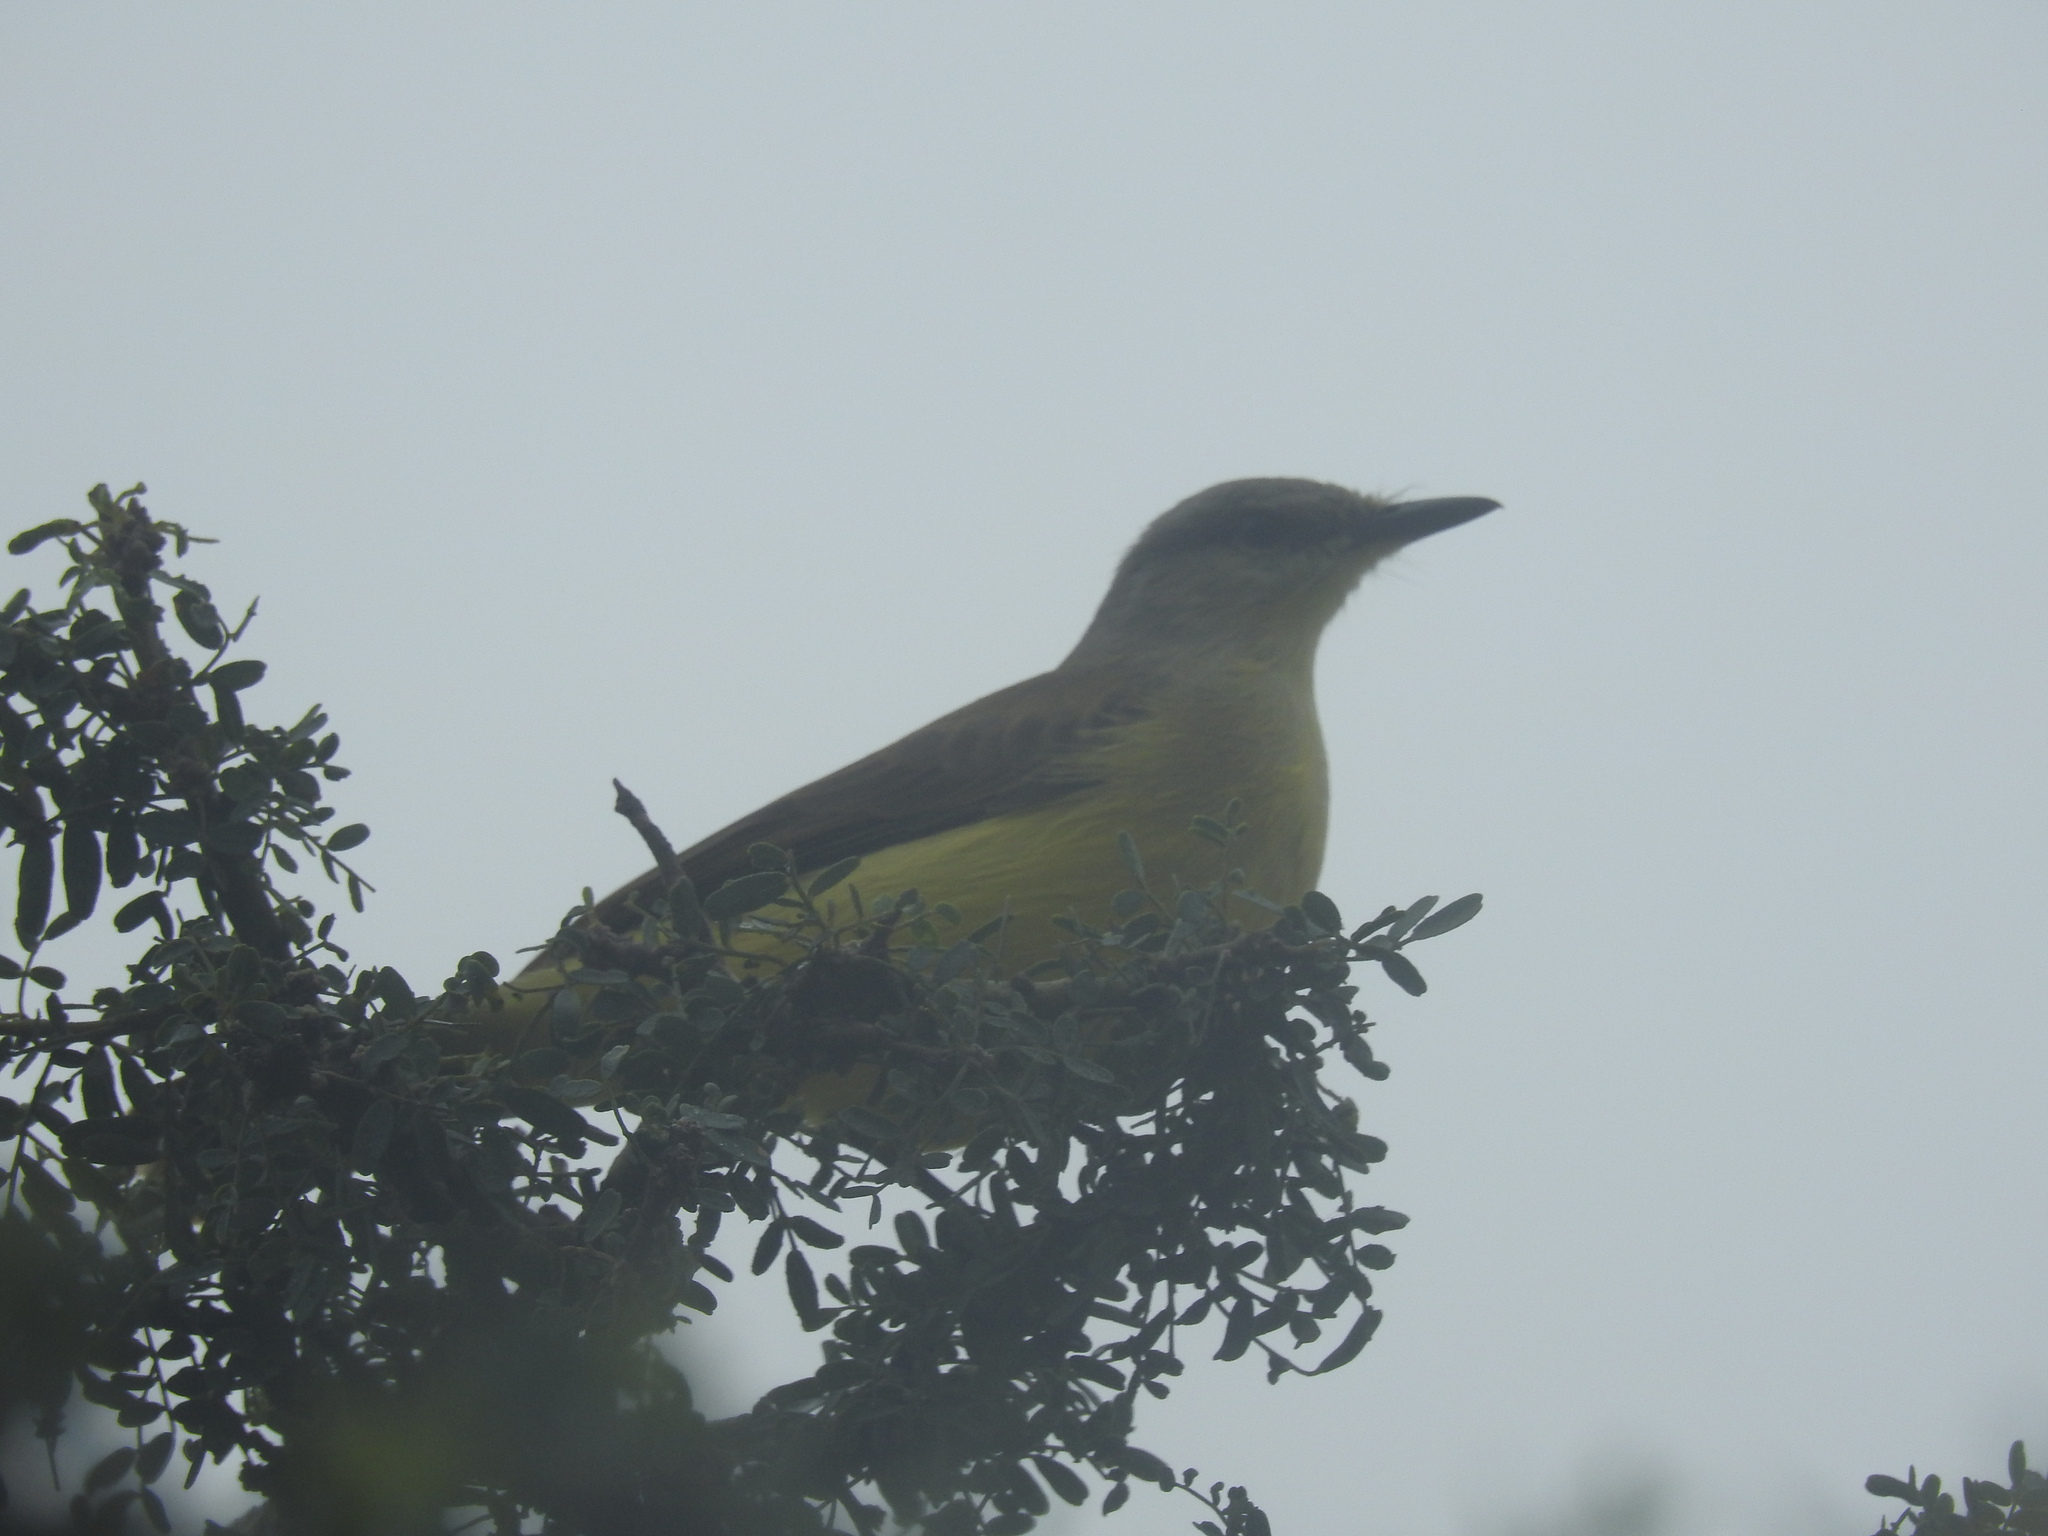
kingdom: Animalia
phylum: Chordata
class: Aves
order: Passeriformes
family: Tyrannidae
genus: Machetornis
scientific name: Machetornis rixosa
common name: Cattle tyrant
